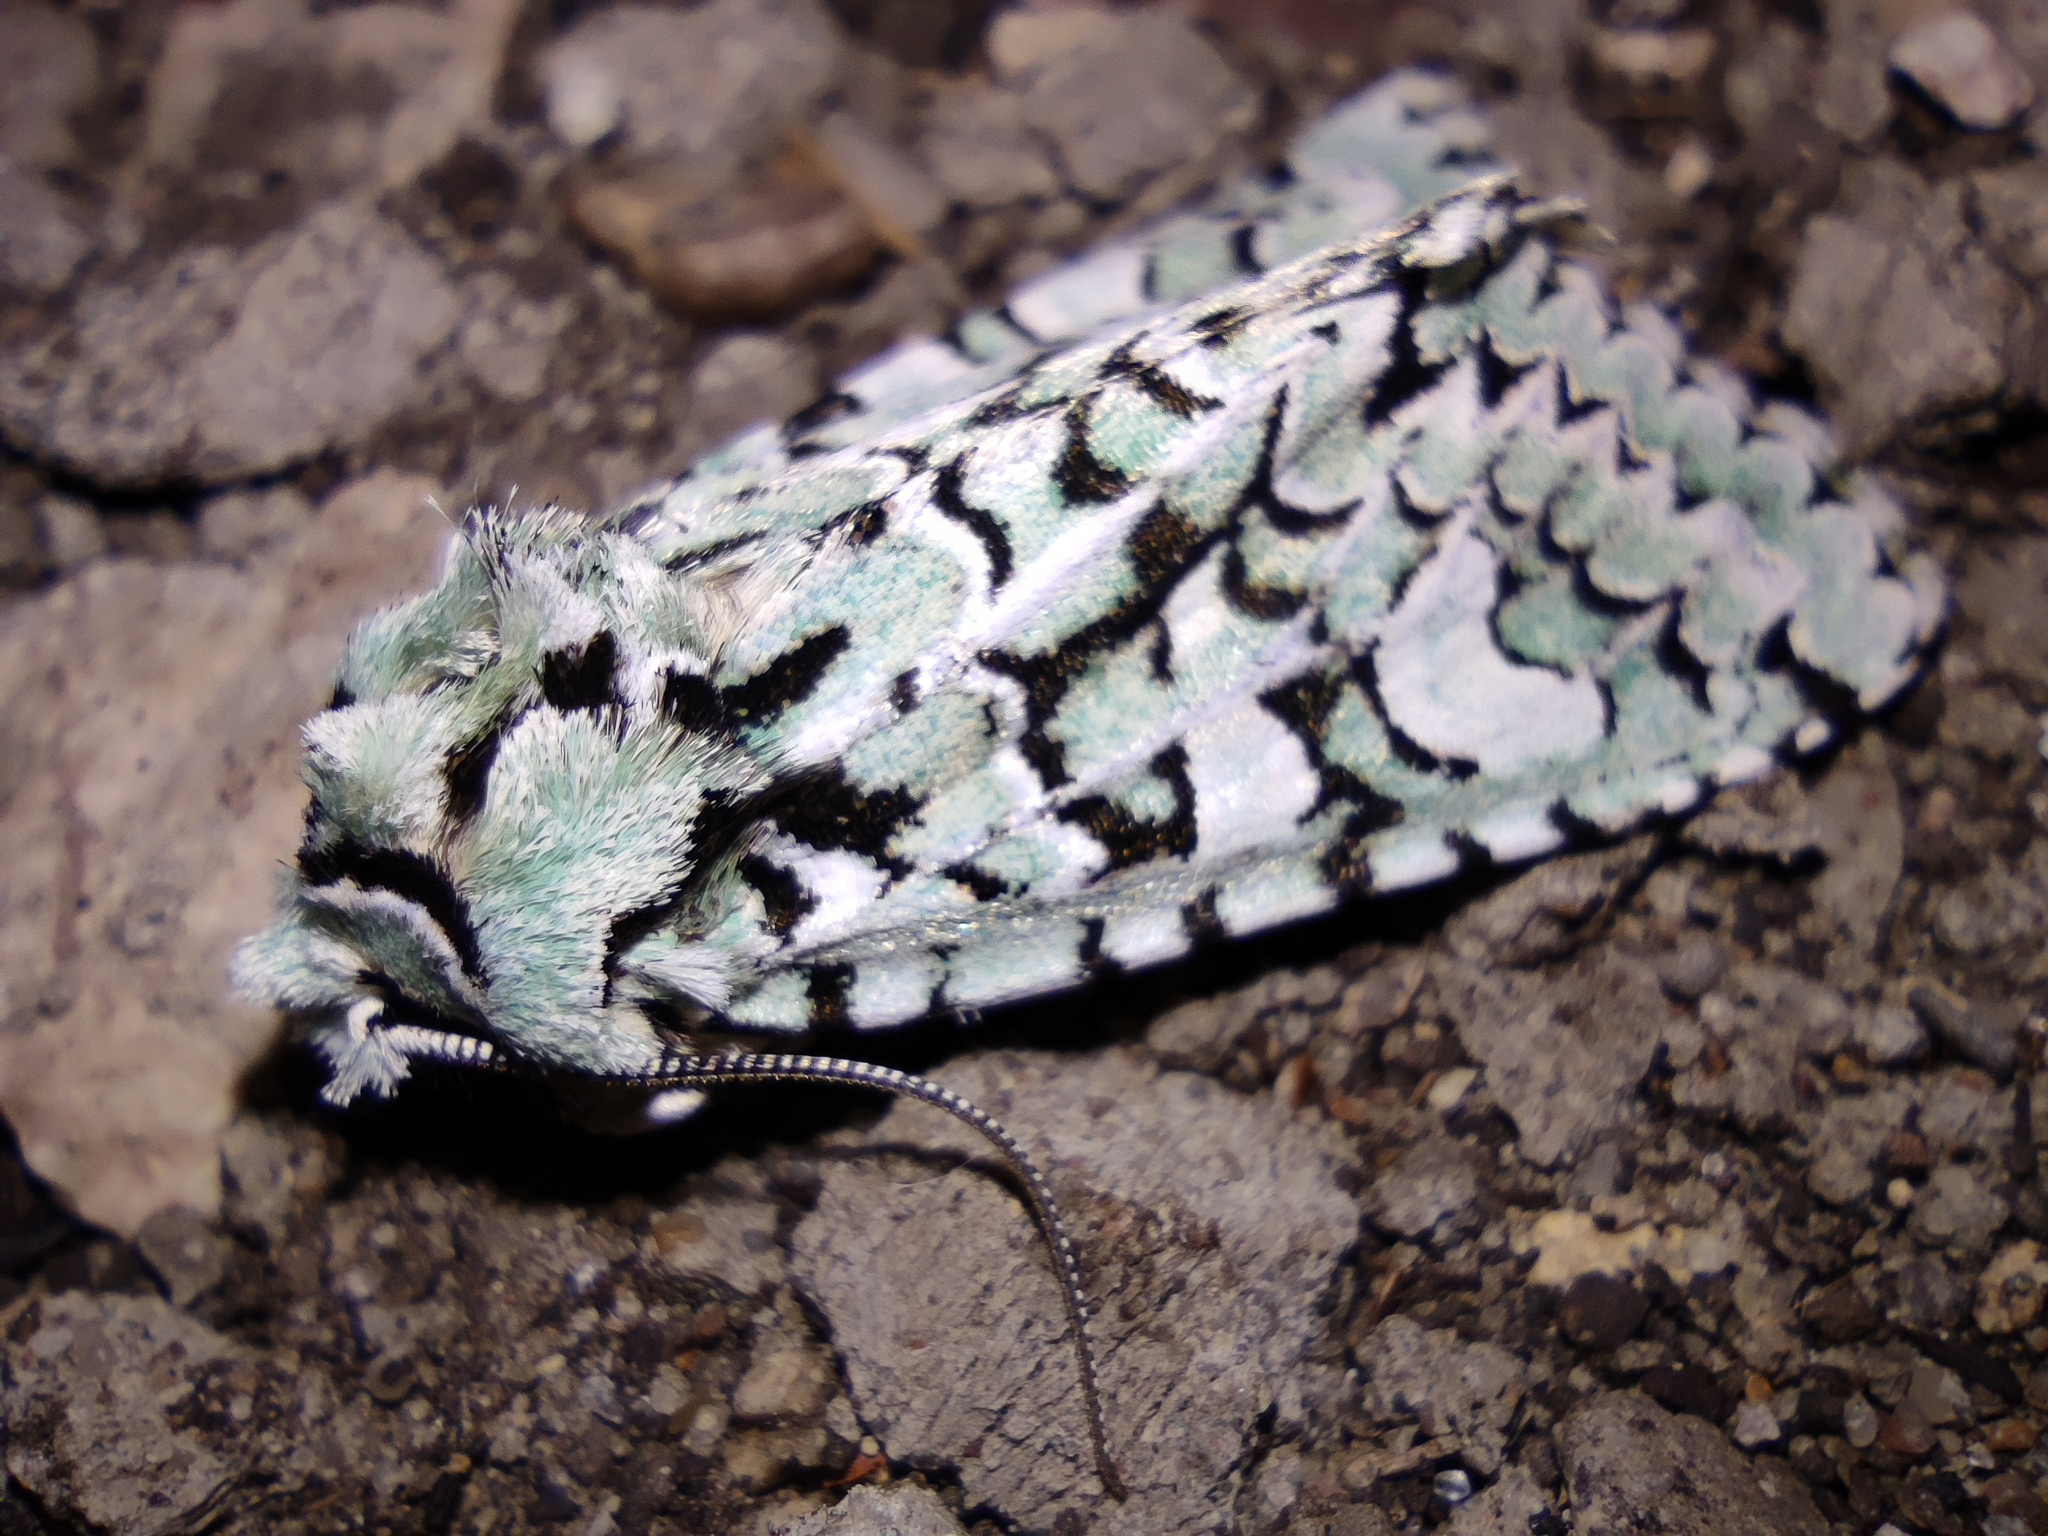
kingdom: Animalia
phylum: Arthropoda
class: Insecta
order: Lepidoptera
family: Noctuidae
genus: Griposia
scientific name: Griposia aprilina
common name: Merveille du jour
